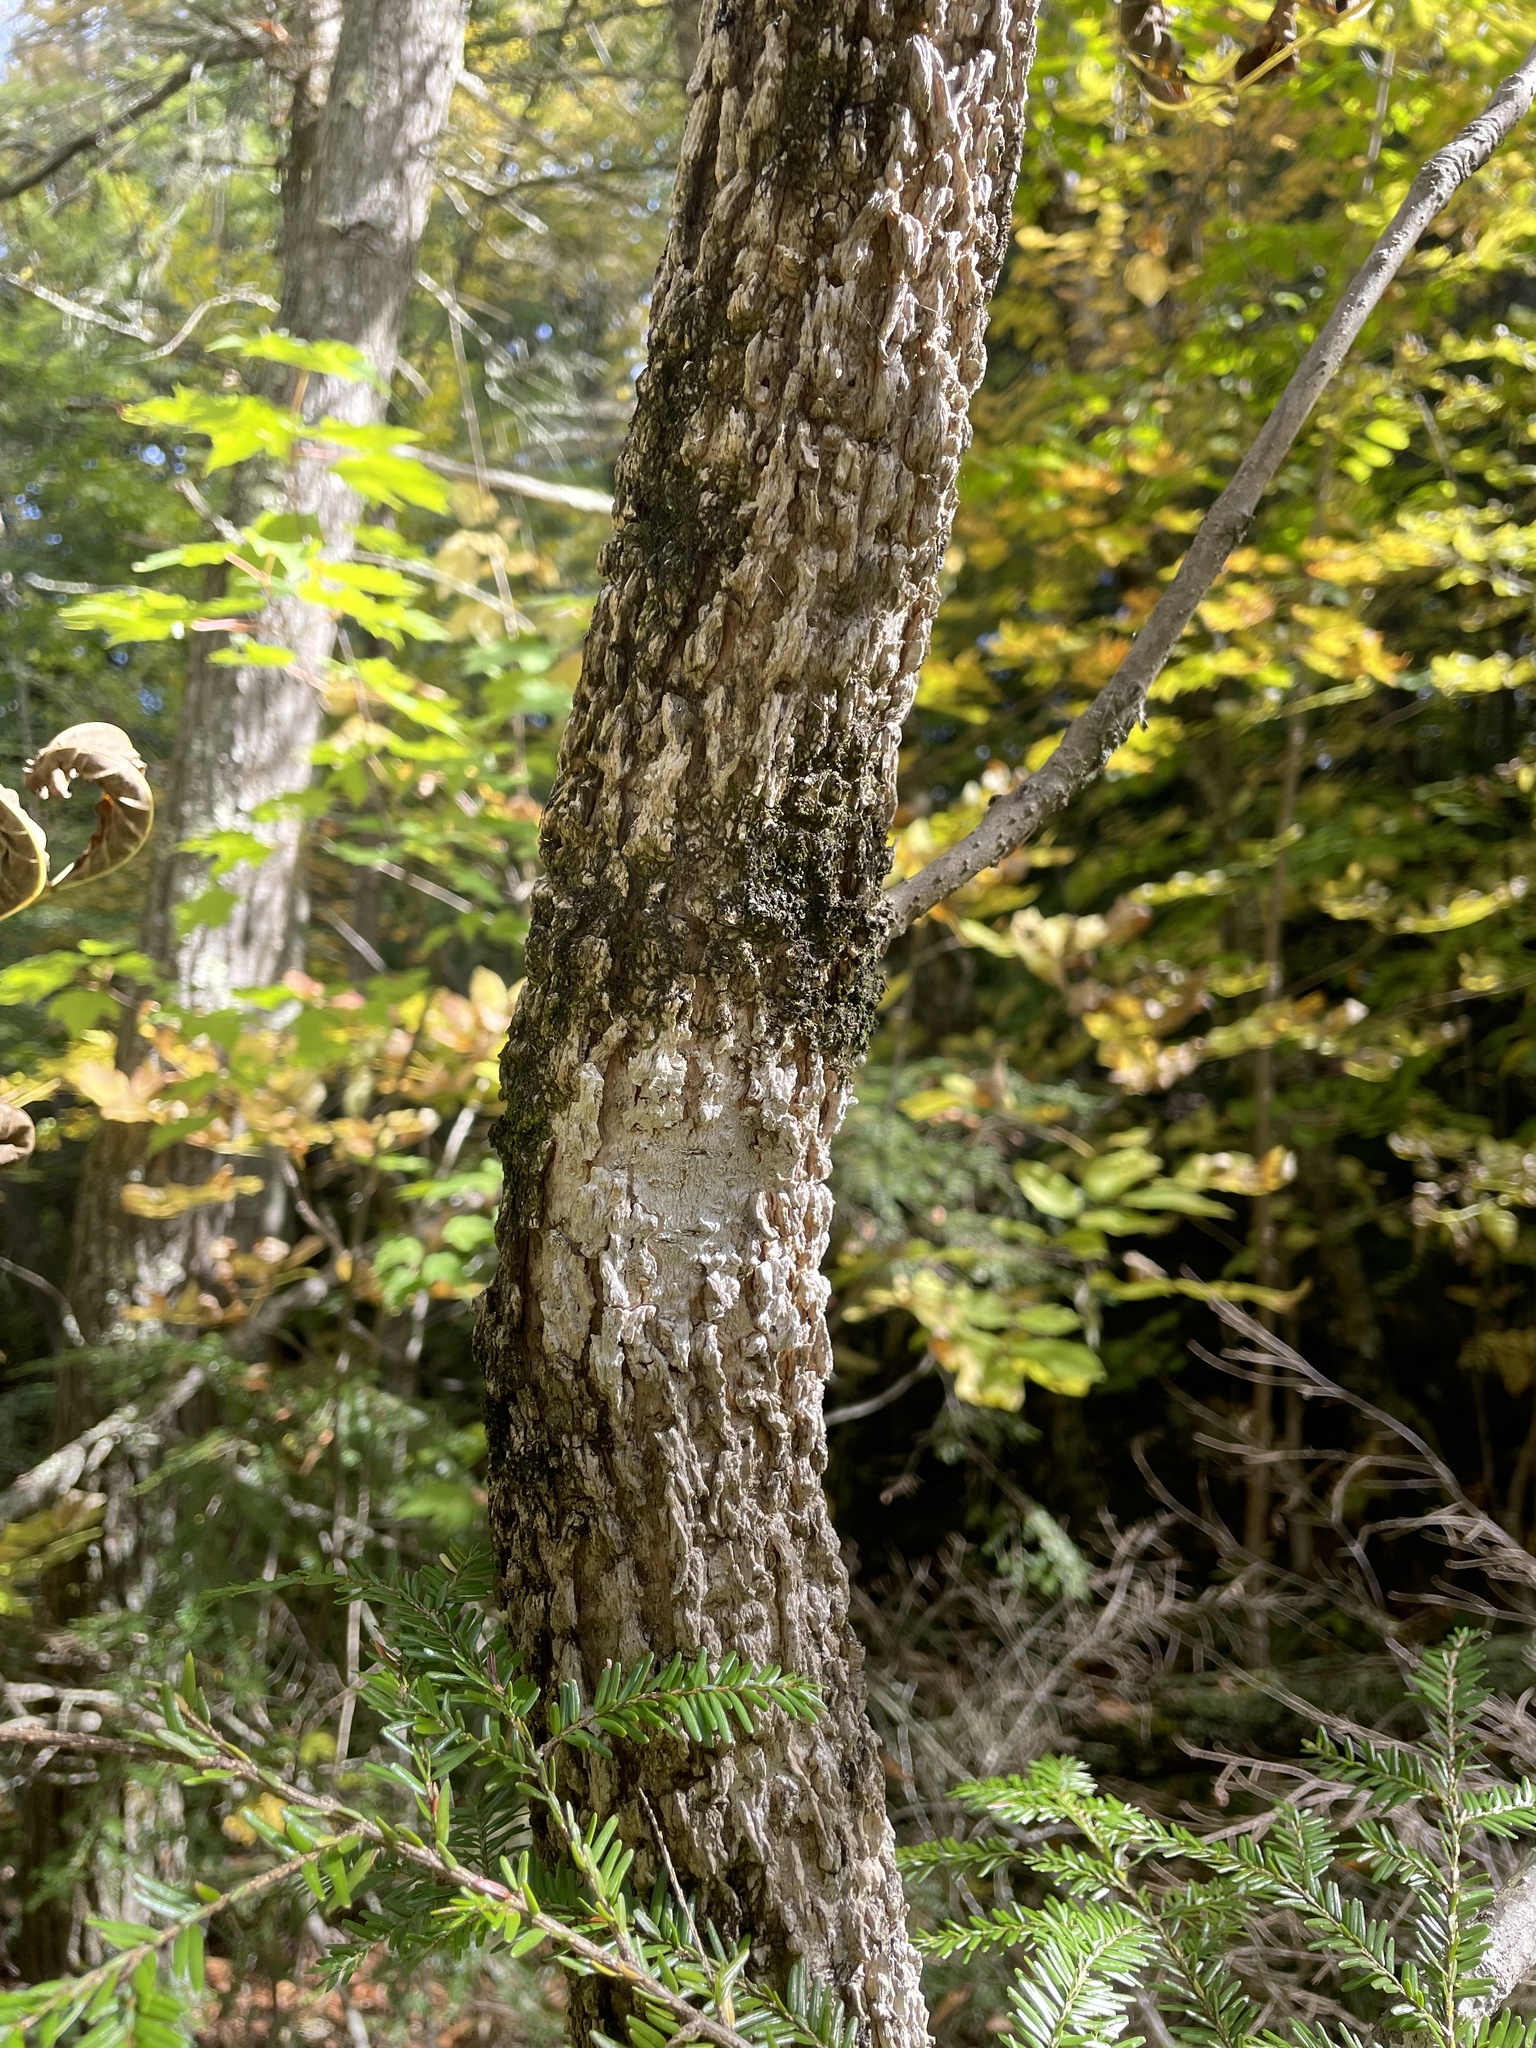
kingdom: Plantae
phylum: Tracheophyta
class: Magnoliopsida
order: Lamiales
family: Oleaceae
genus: Fraxinus
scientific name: Fraxinus nigra
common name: Black ash
